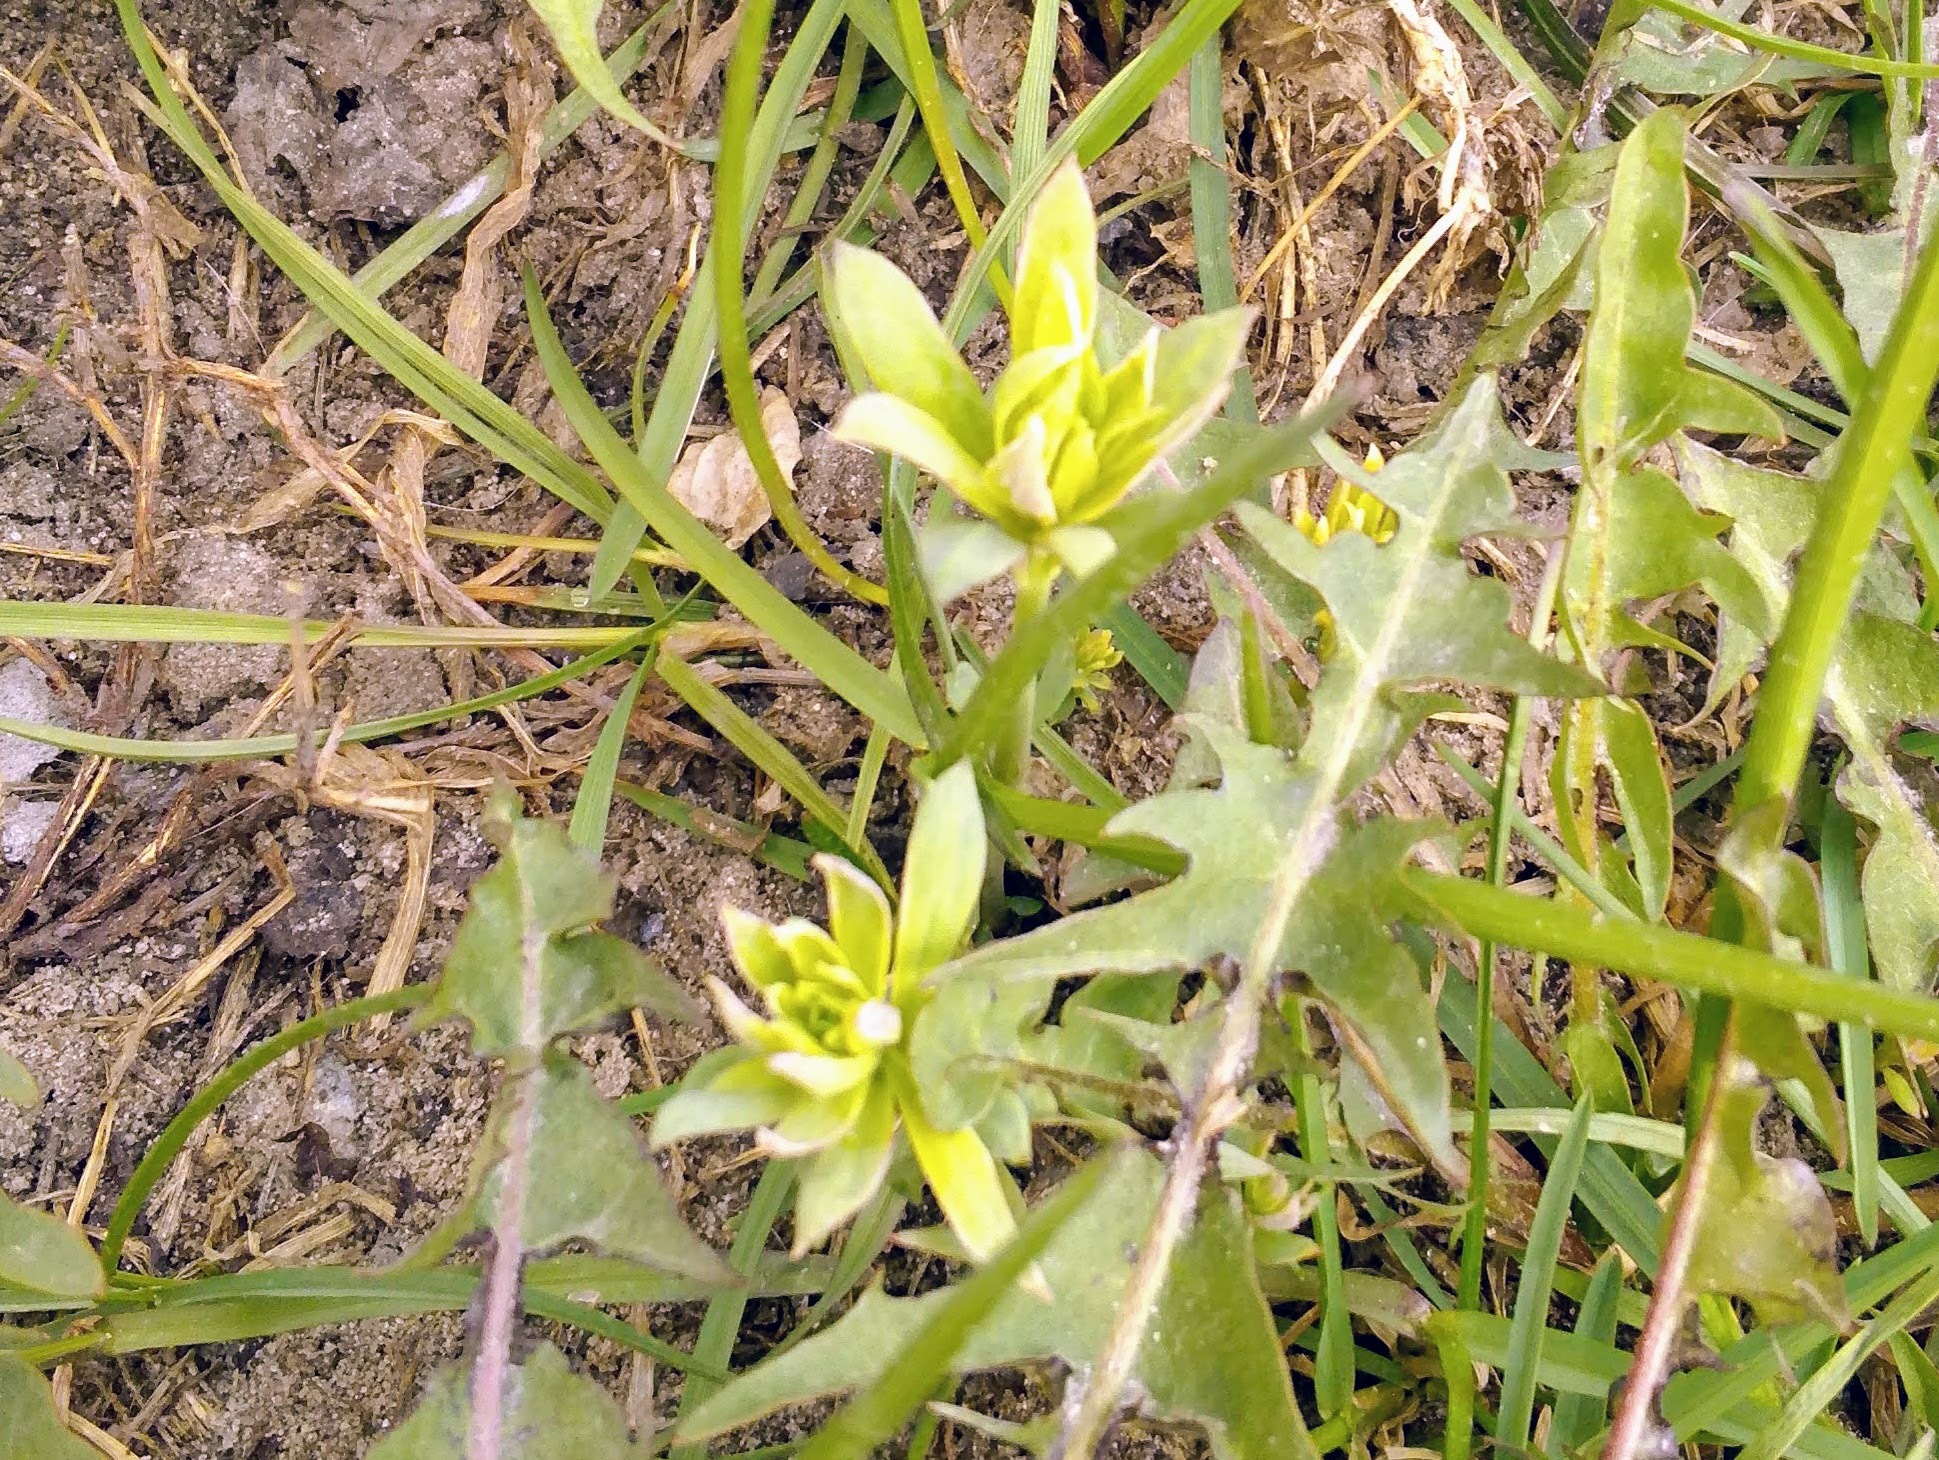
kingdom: Plantae
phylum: Tracheophyta
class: Magnoliopsida
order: Lamiales
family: Plantaginaceae
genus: Linaria
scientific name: Linaria vulgaris
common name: Butter and eggs
